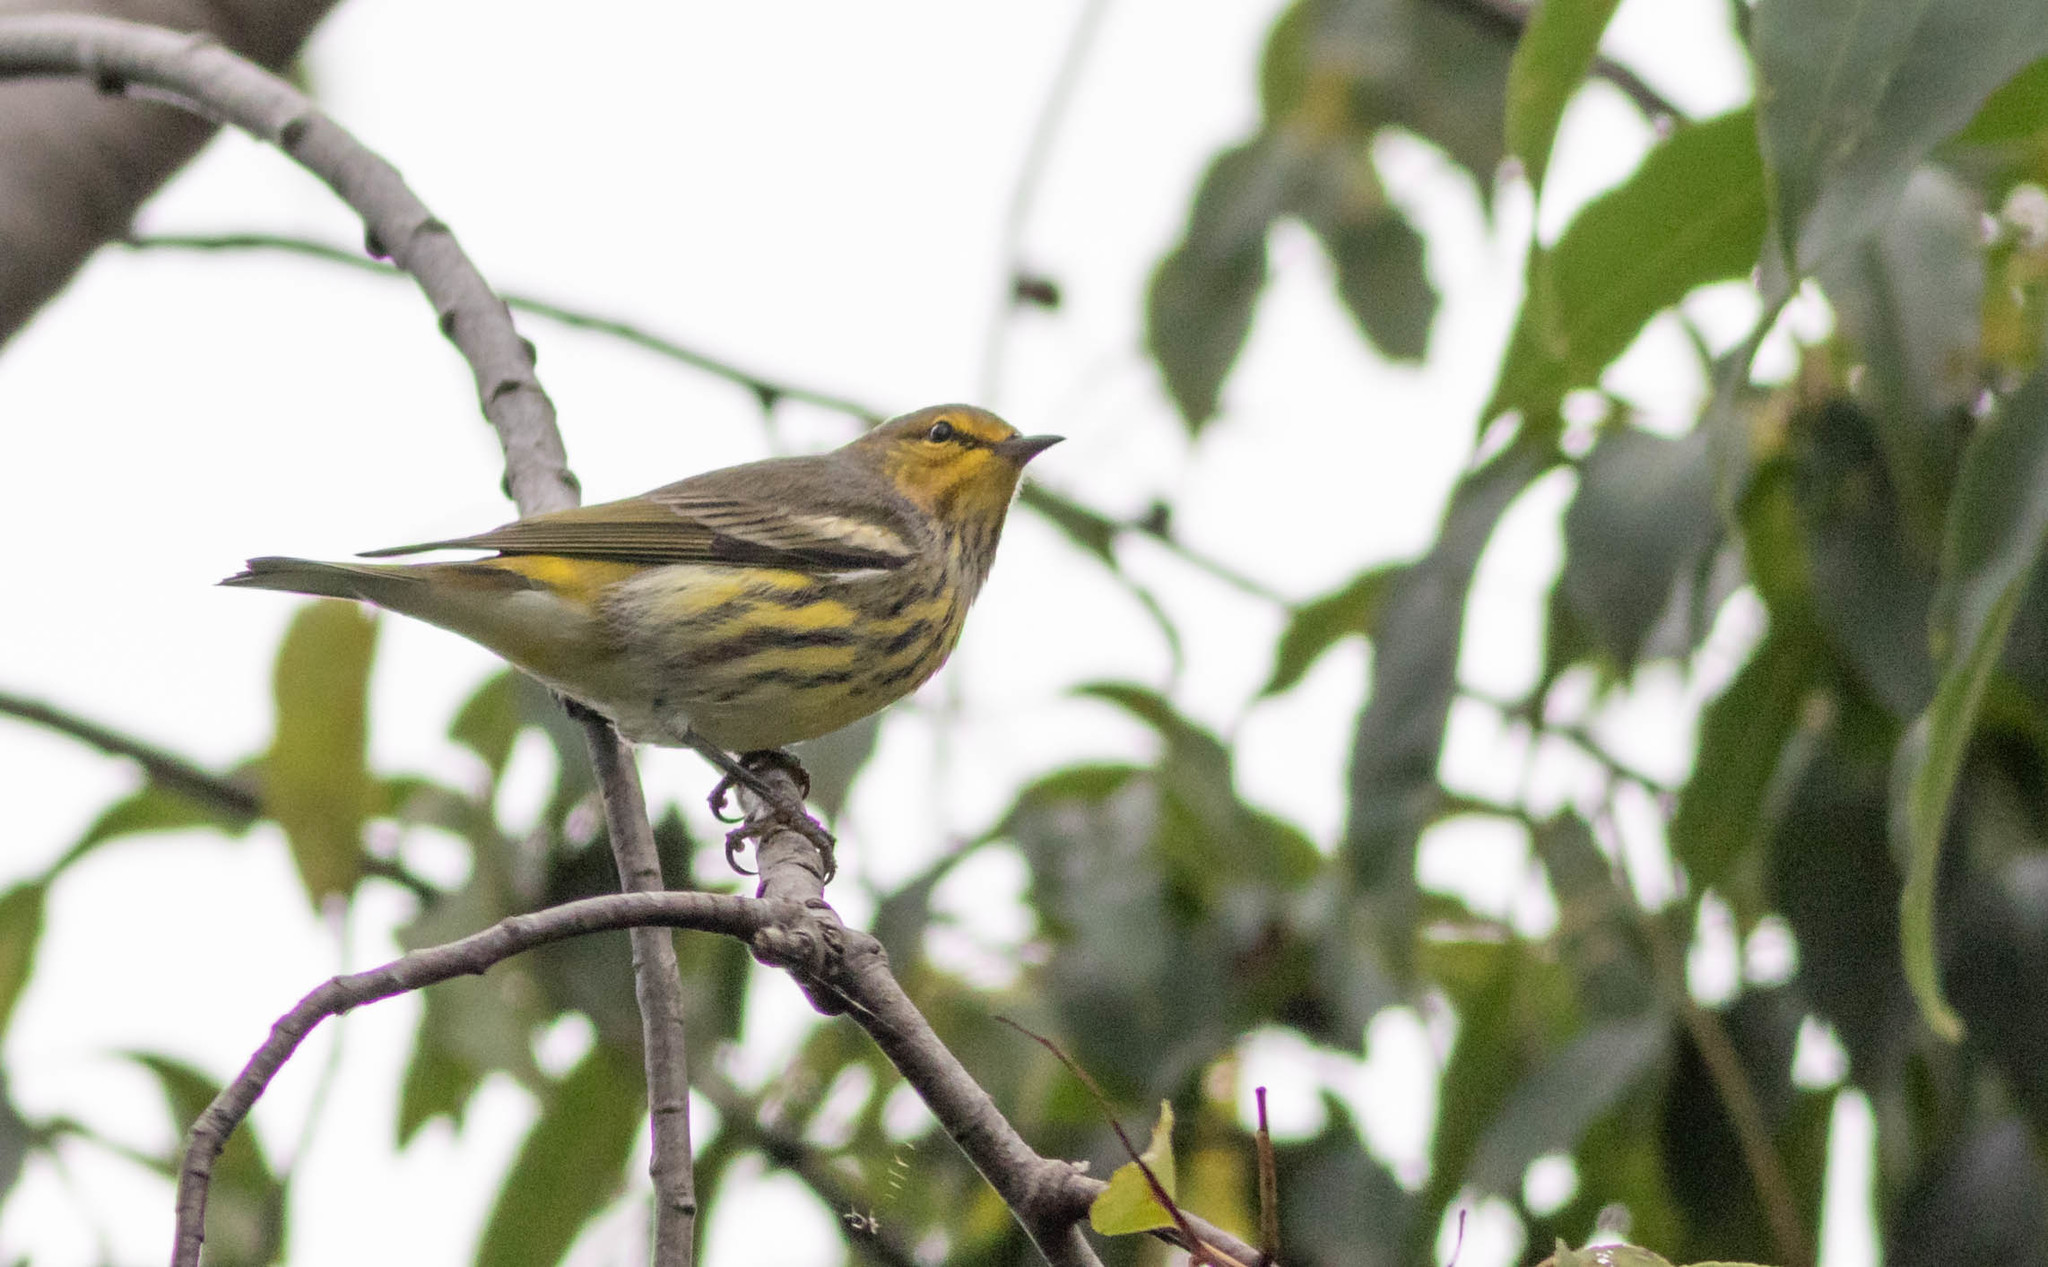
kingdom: Animalia
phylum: Chordata
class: Aves
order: Passeriformes
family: Parulidae
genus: Setophaga
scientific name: Setophaga tigrina
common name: Cape may warbler
